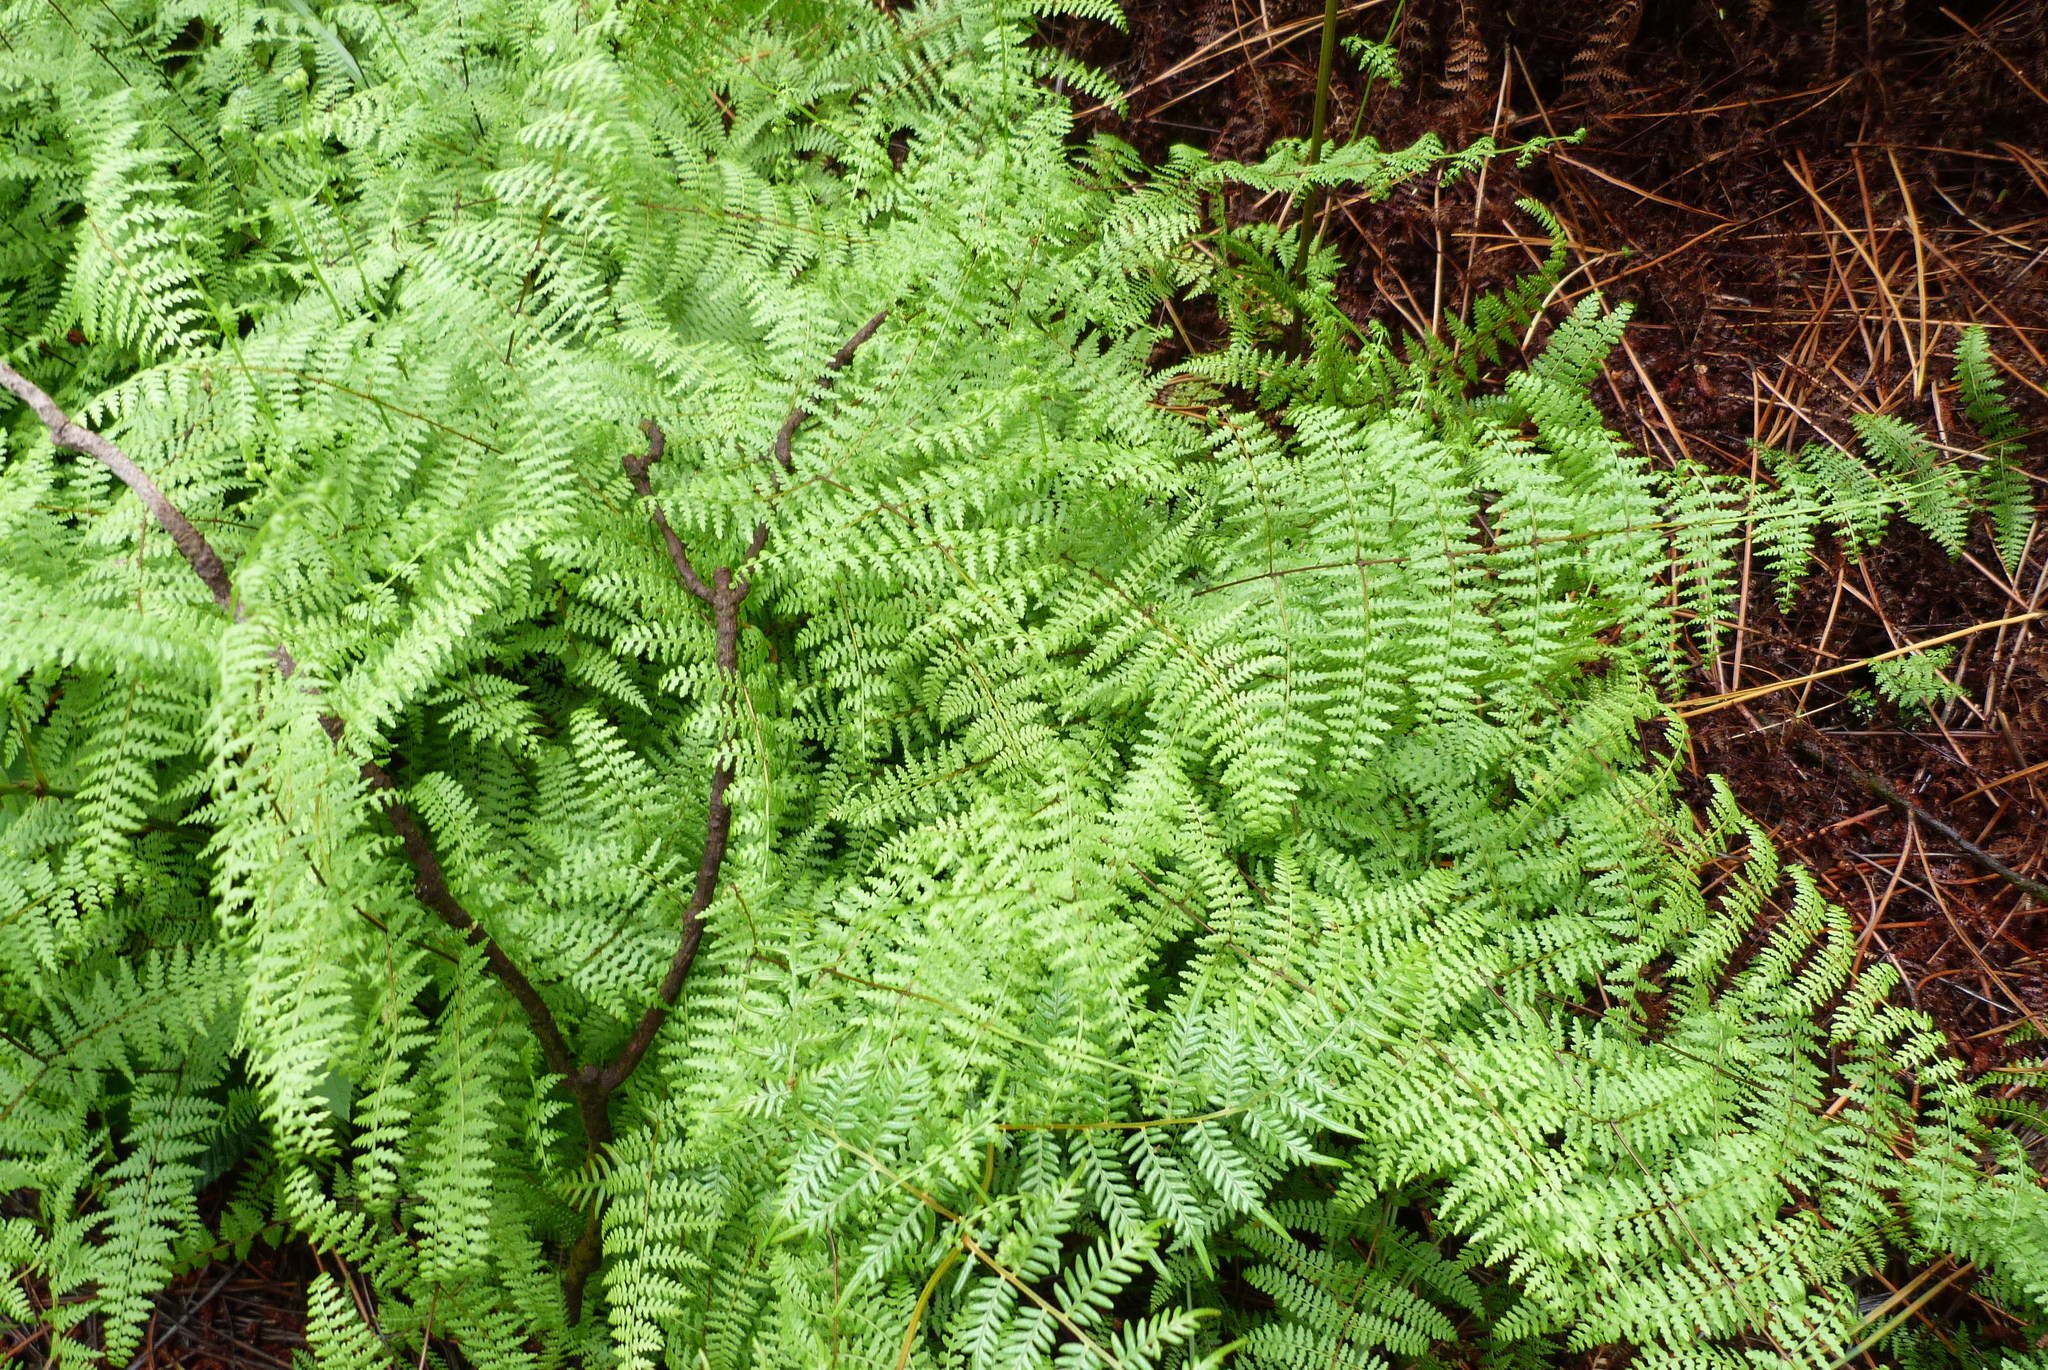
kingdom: Plantae
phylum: Tracheophyta
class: Polypodiopsida
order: Polypodiales
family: Dennstaedtiaceae
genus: Hiya
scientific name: Hiya distans
